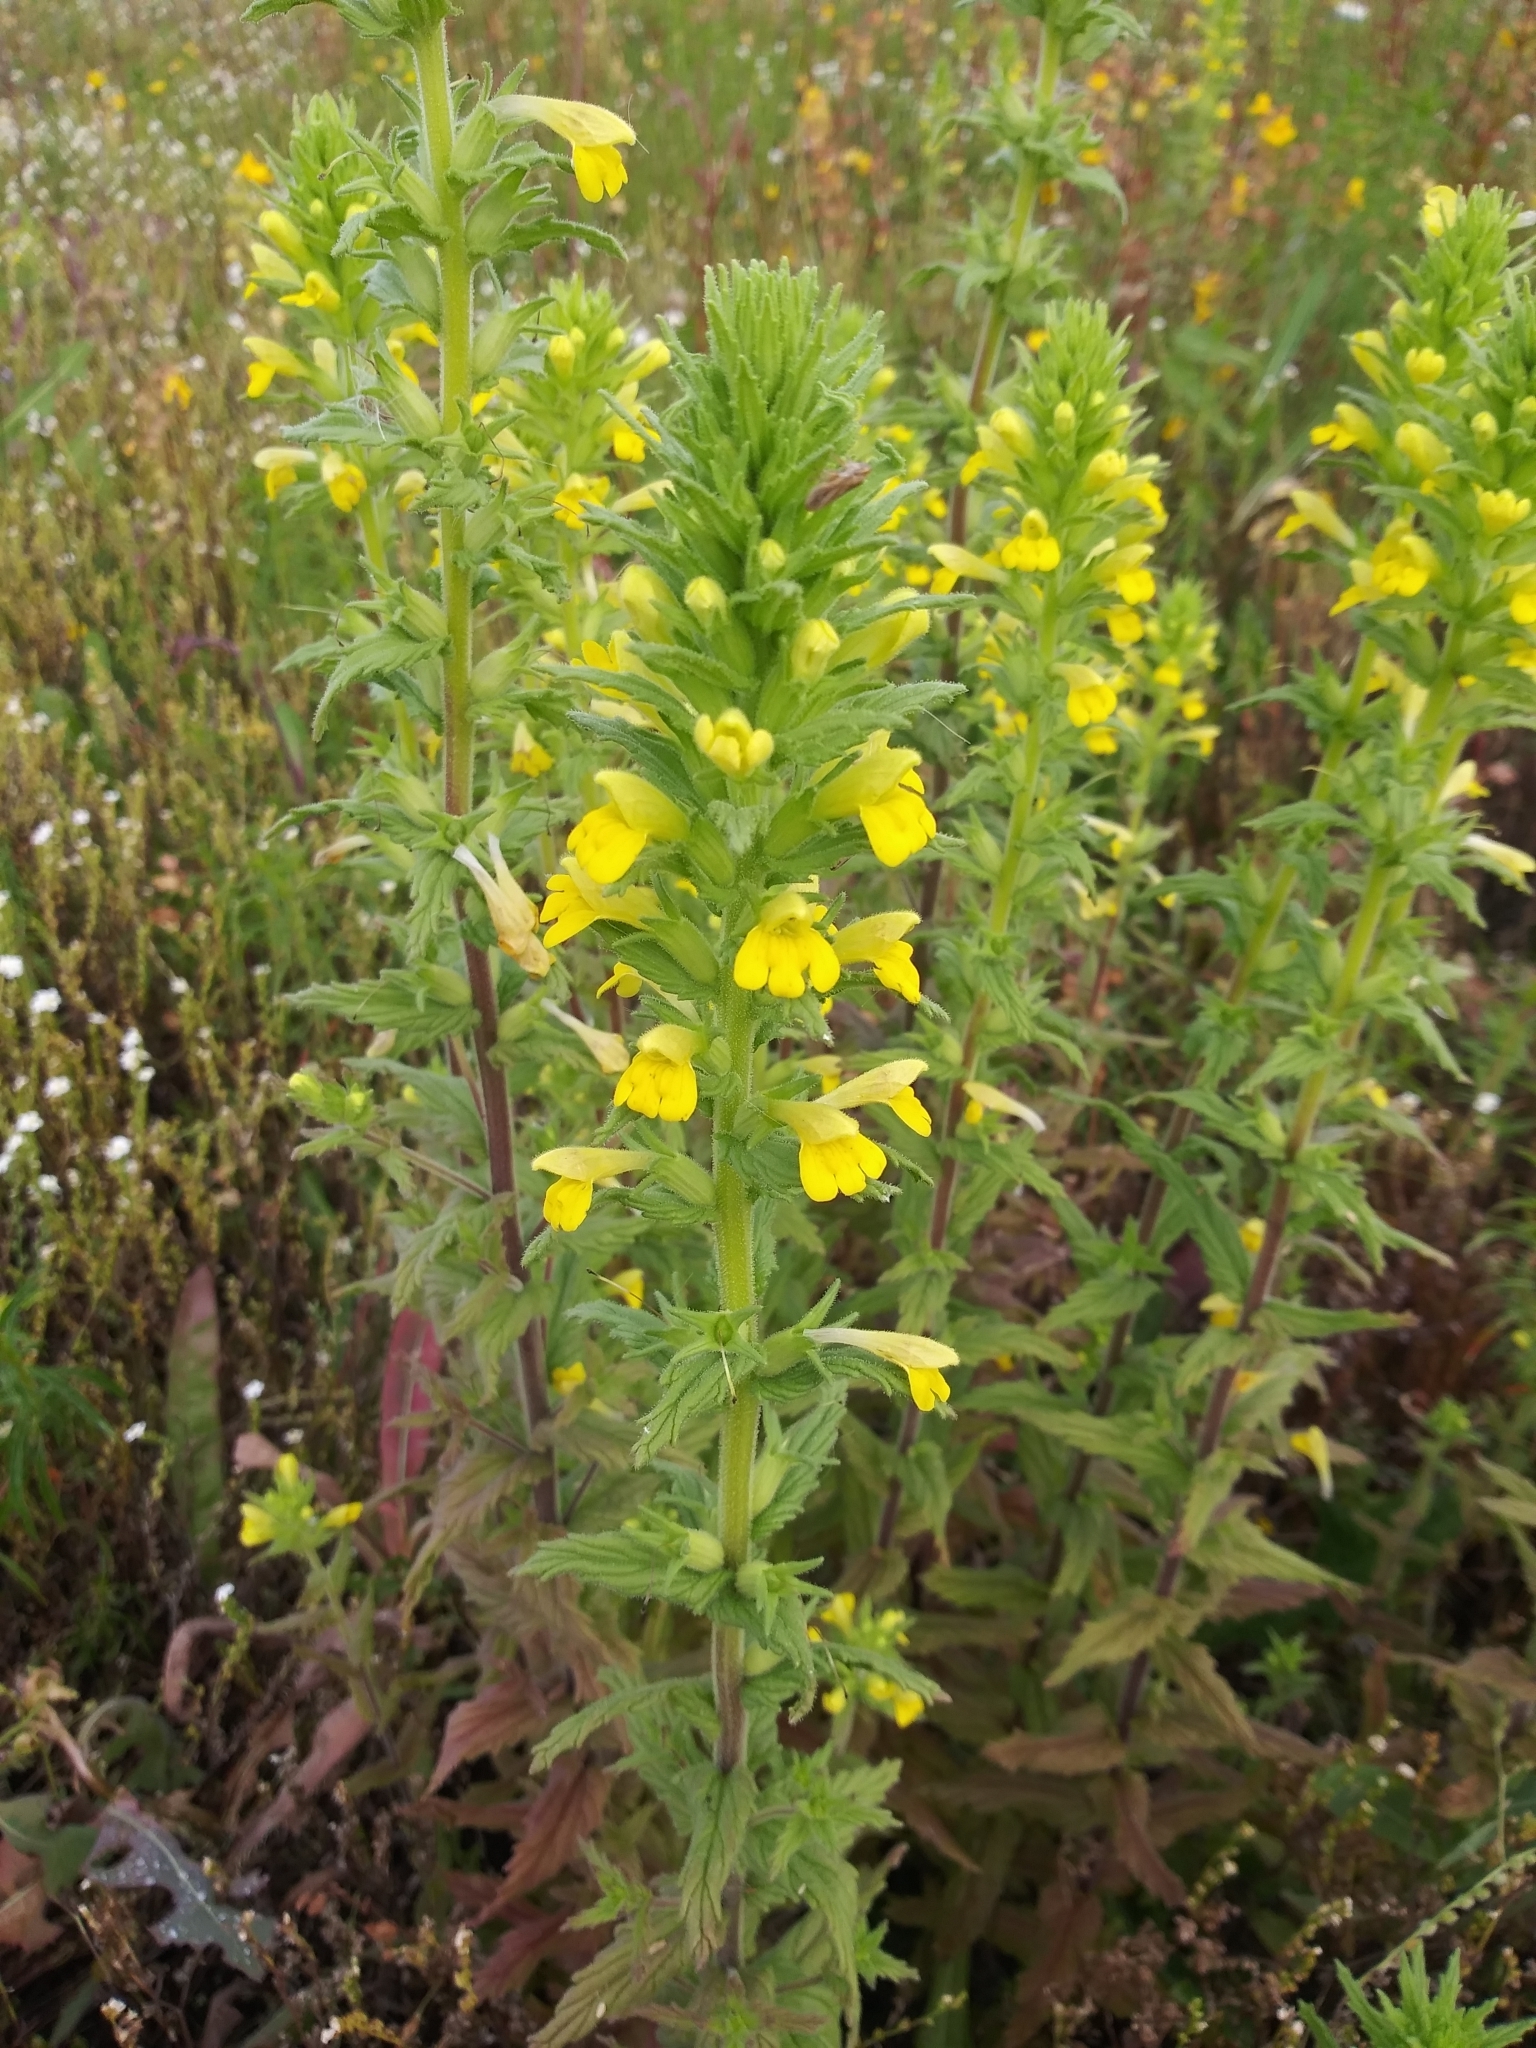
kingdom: Plantae
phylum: Tracheophyta
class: Magnoliopsida
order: Lamiales
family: Orobanchaceae
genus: Bellardia
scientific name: Bellardia viscosa
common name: Sticky parentucellia
